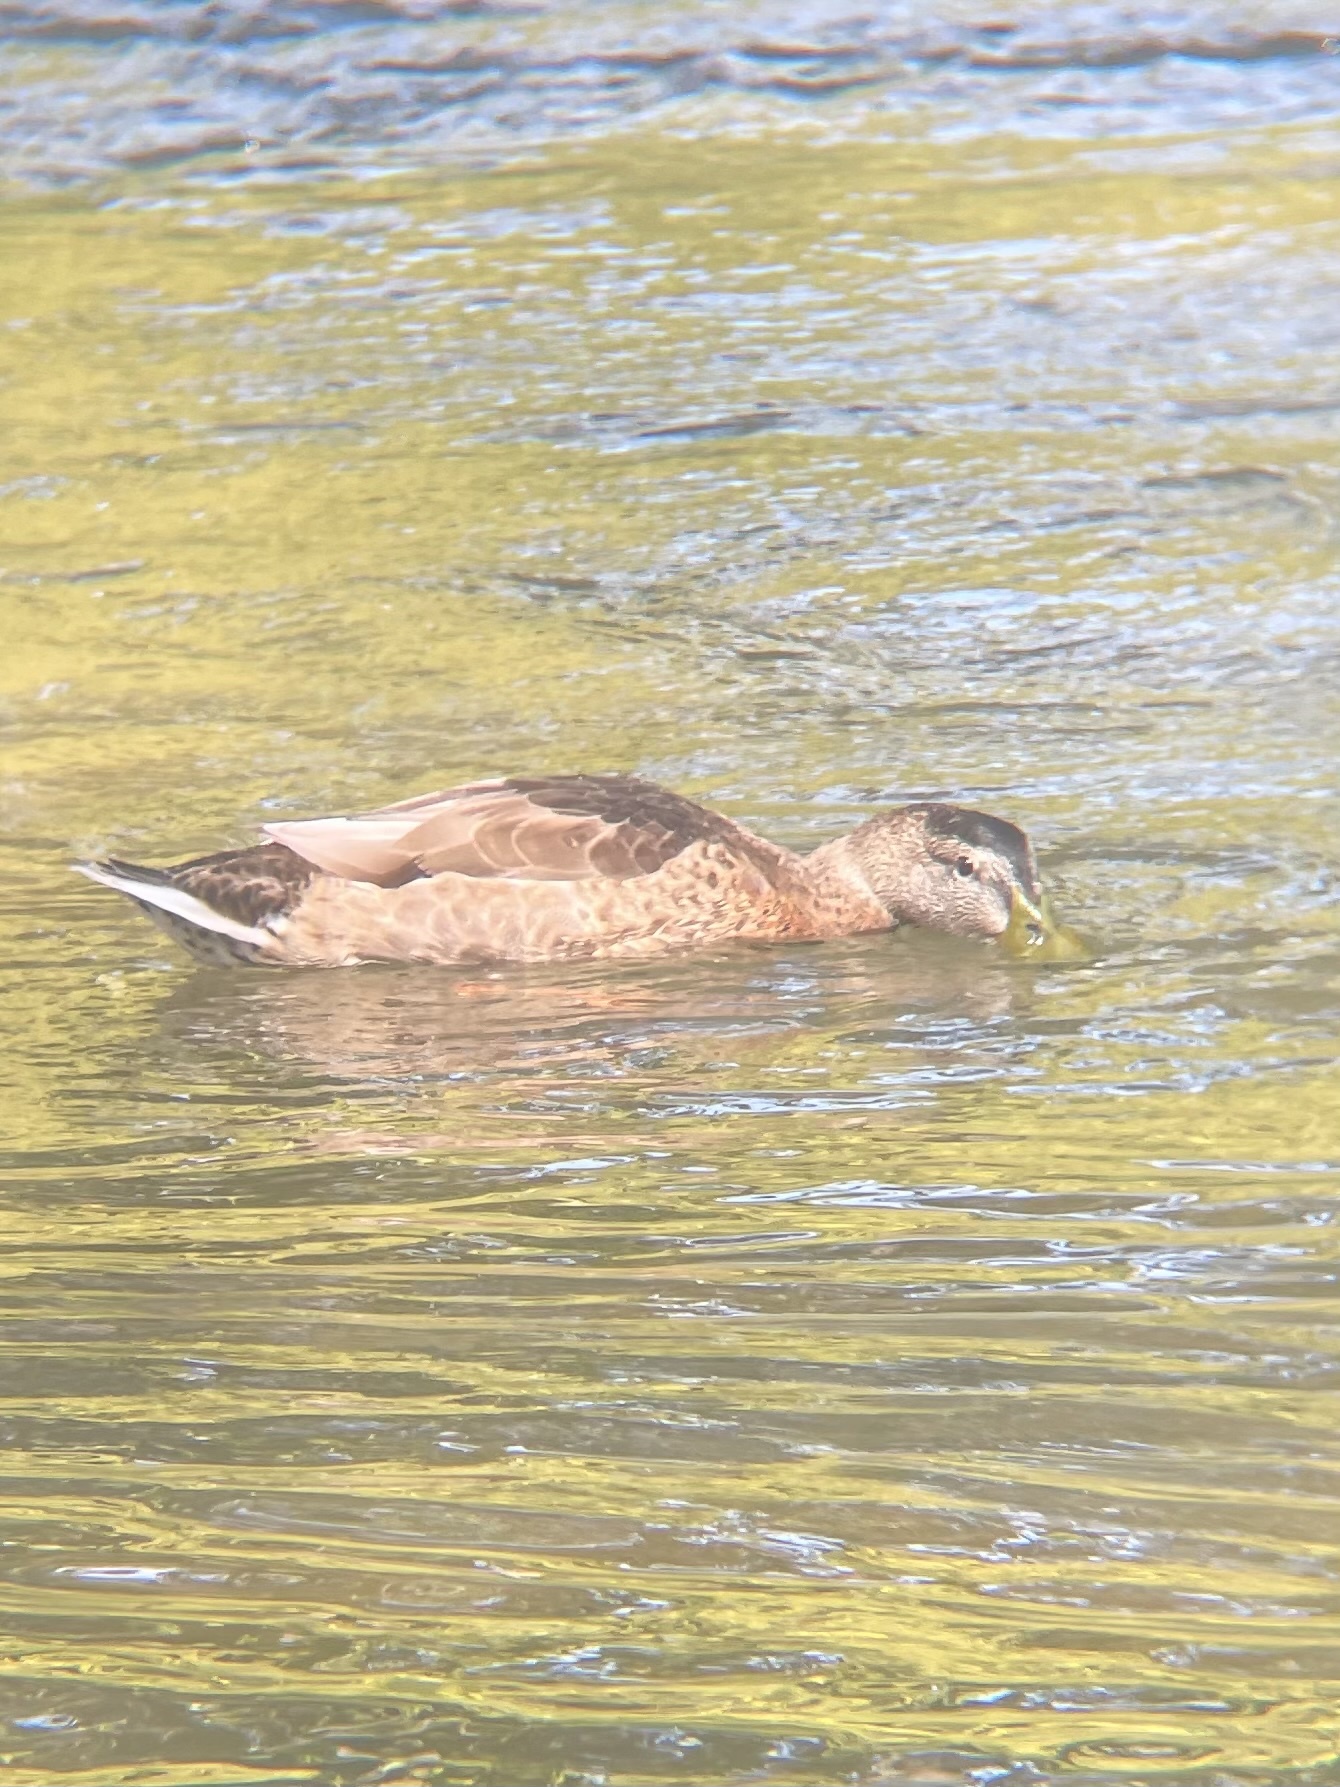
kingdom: Animalia
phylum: Chordata
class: Aves
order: Anseriformes
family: Anatidae
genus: Anas
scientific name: Anas platyrhynchos
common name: Mallard
